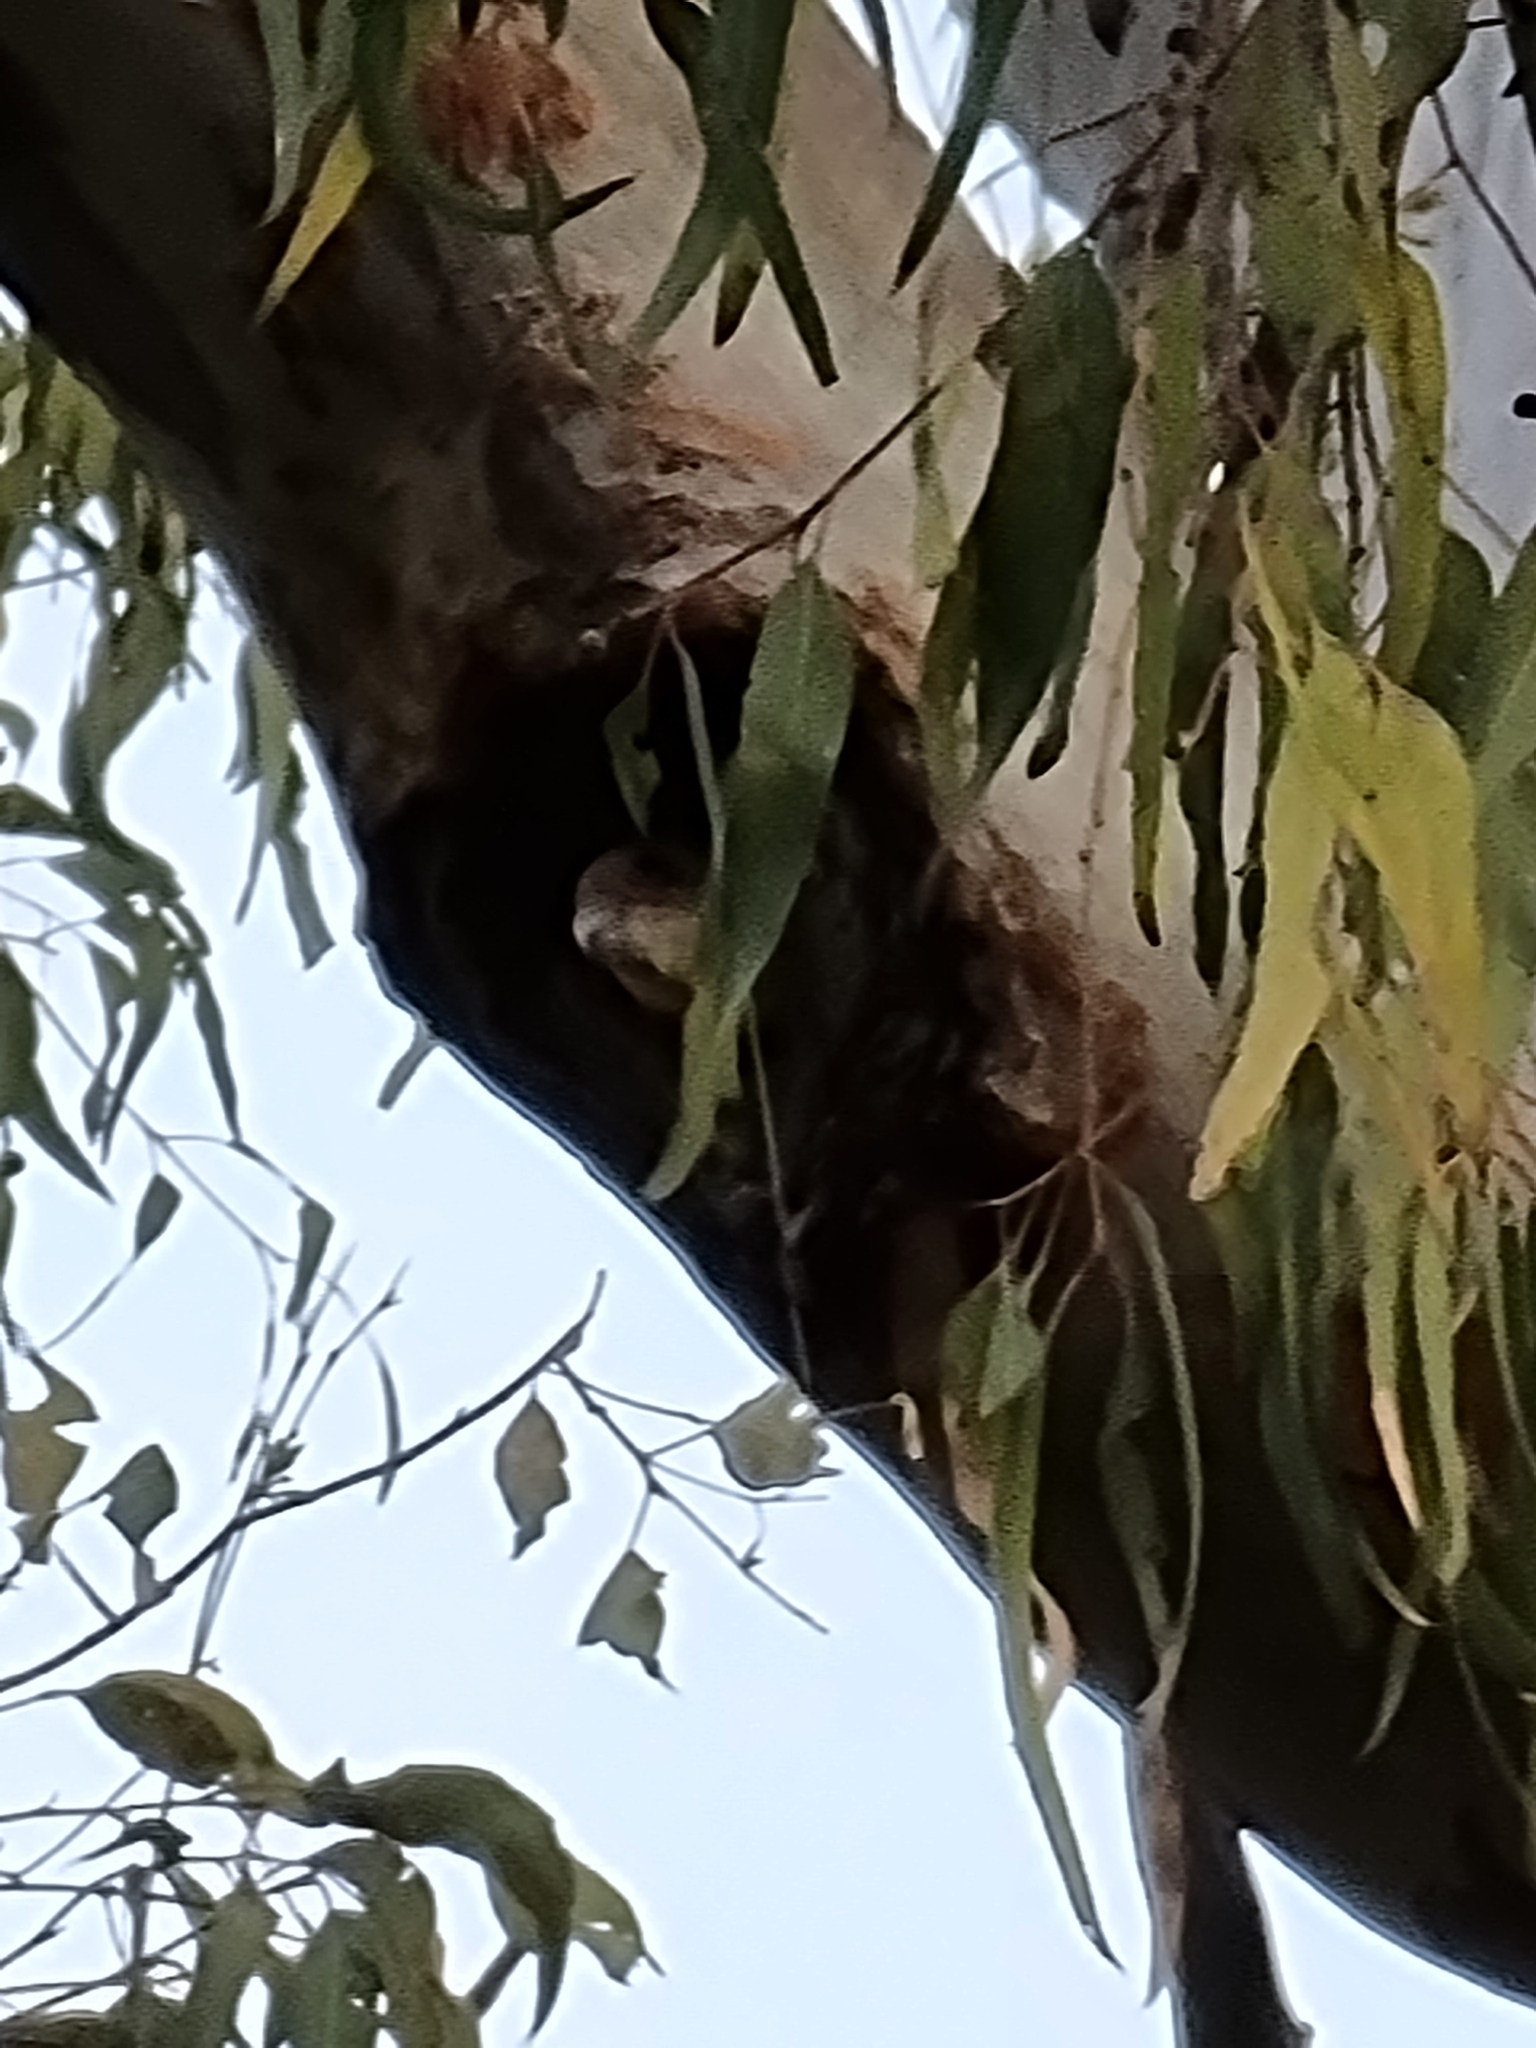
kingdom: Animalia
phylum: Chordata
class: Aves
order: Psittaciformes
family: Psittacidae
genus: Cacatua
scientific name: Cacatua sanguinea
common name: Little corella
